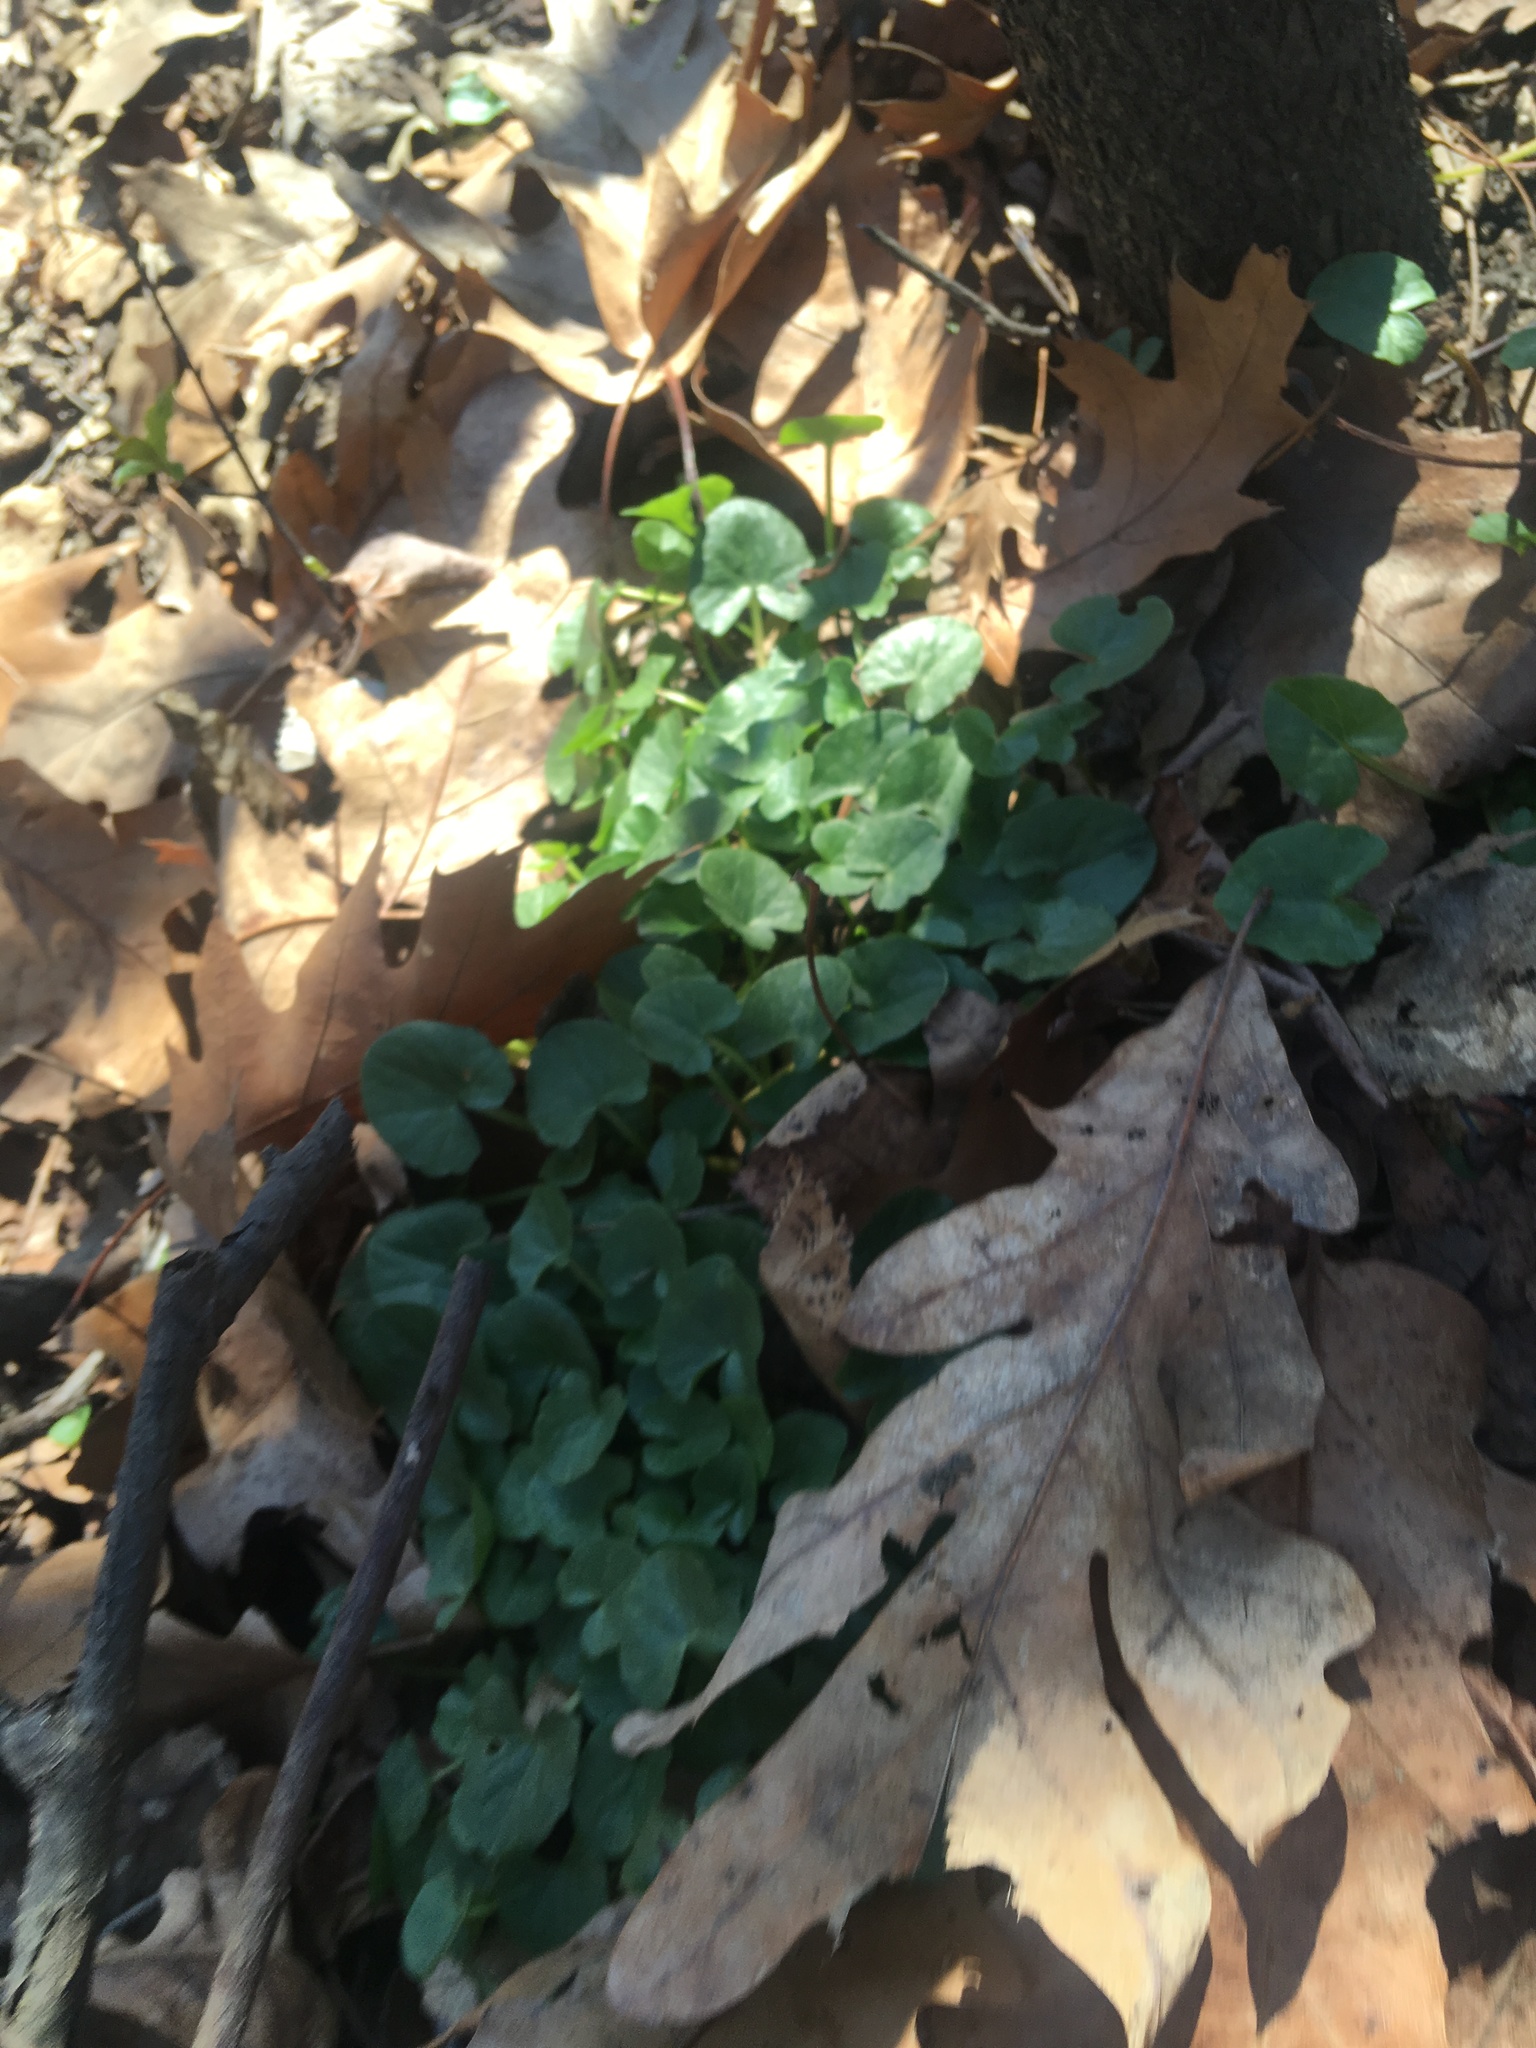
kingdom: Plantae
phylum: Tracheophyta
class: Magnoliopsida
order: Ranunculales
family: Ranunculaceae
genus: Ficaria
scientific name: Ficaria verna
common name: Lesser celandine
